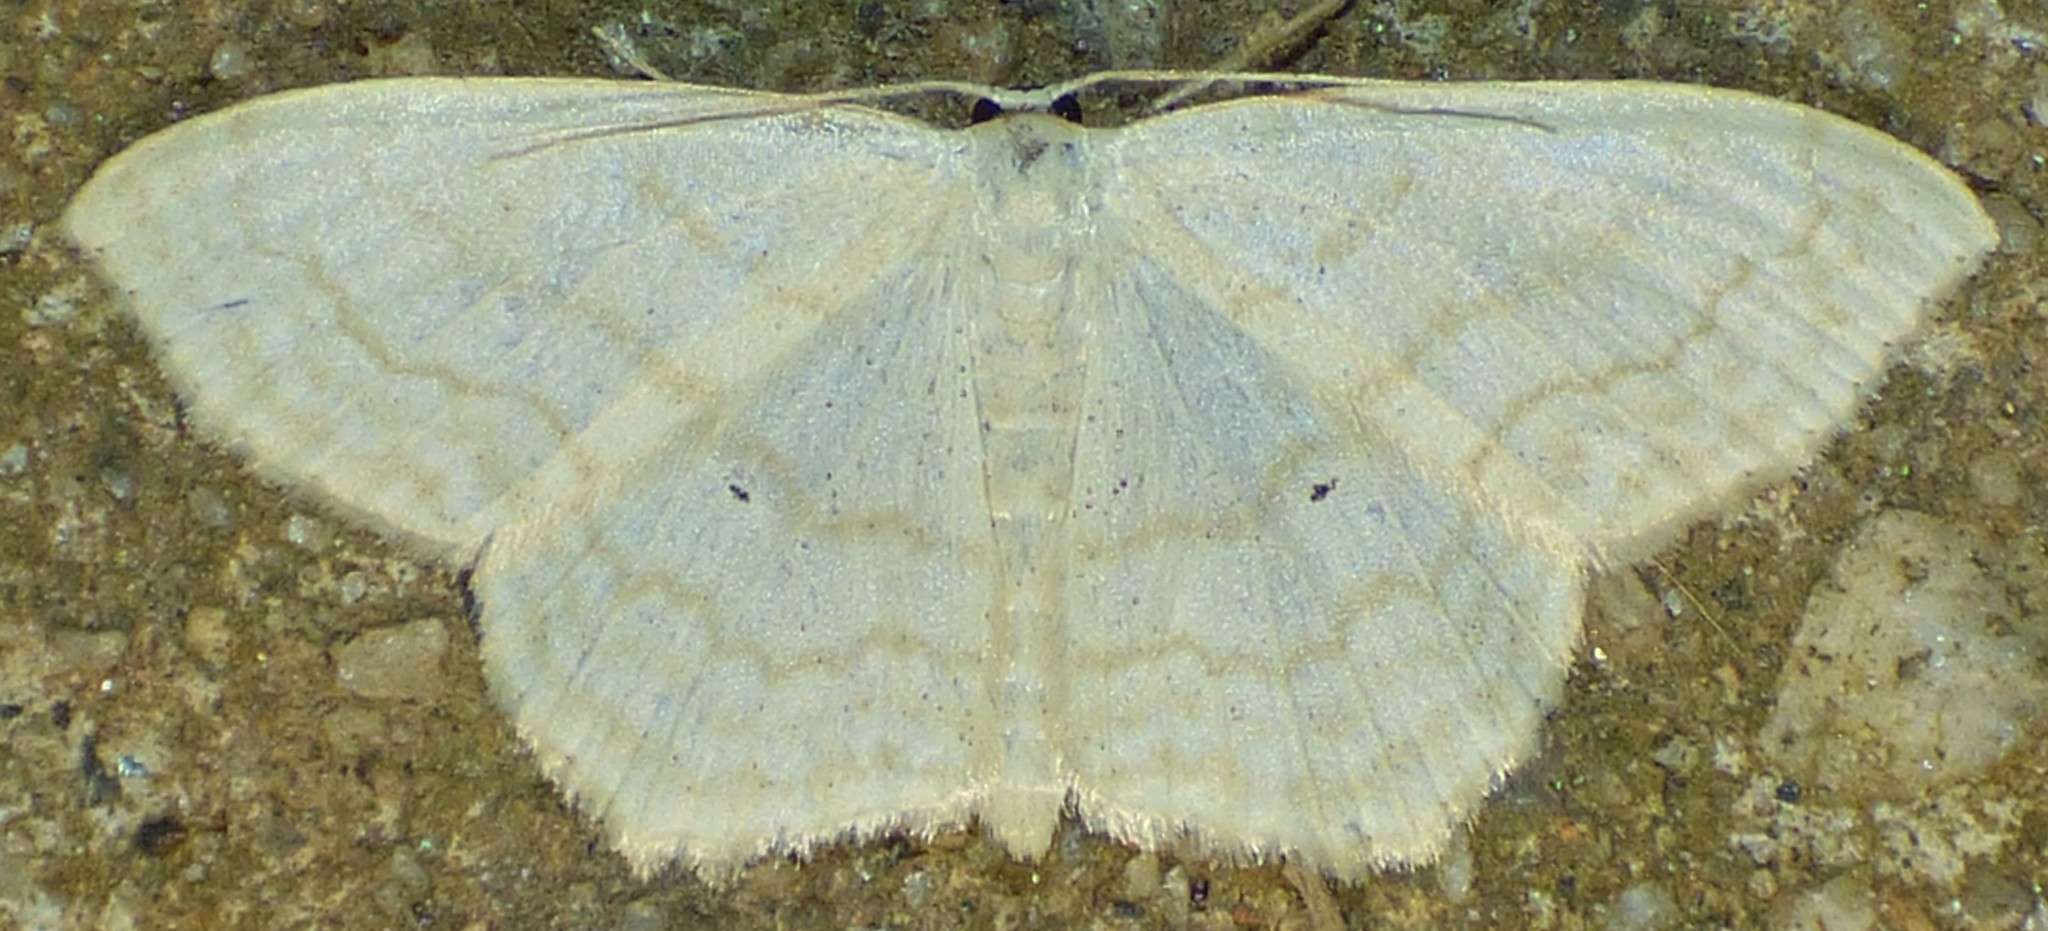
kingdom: Animalia
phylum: Arthropoda
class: Insecta
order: Lepidoptera
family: Geometridae
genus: Scopula
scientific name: Scopula limboundata
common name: Large lace border
